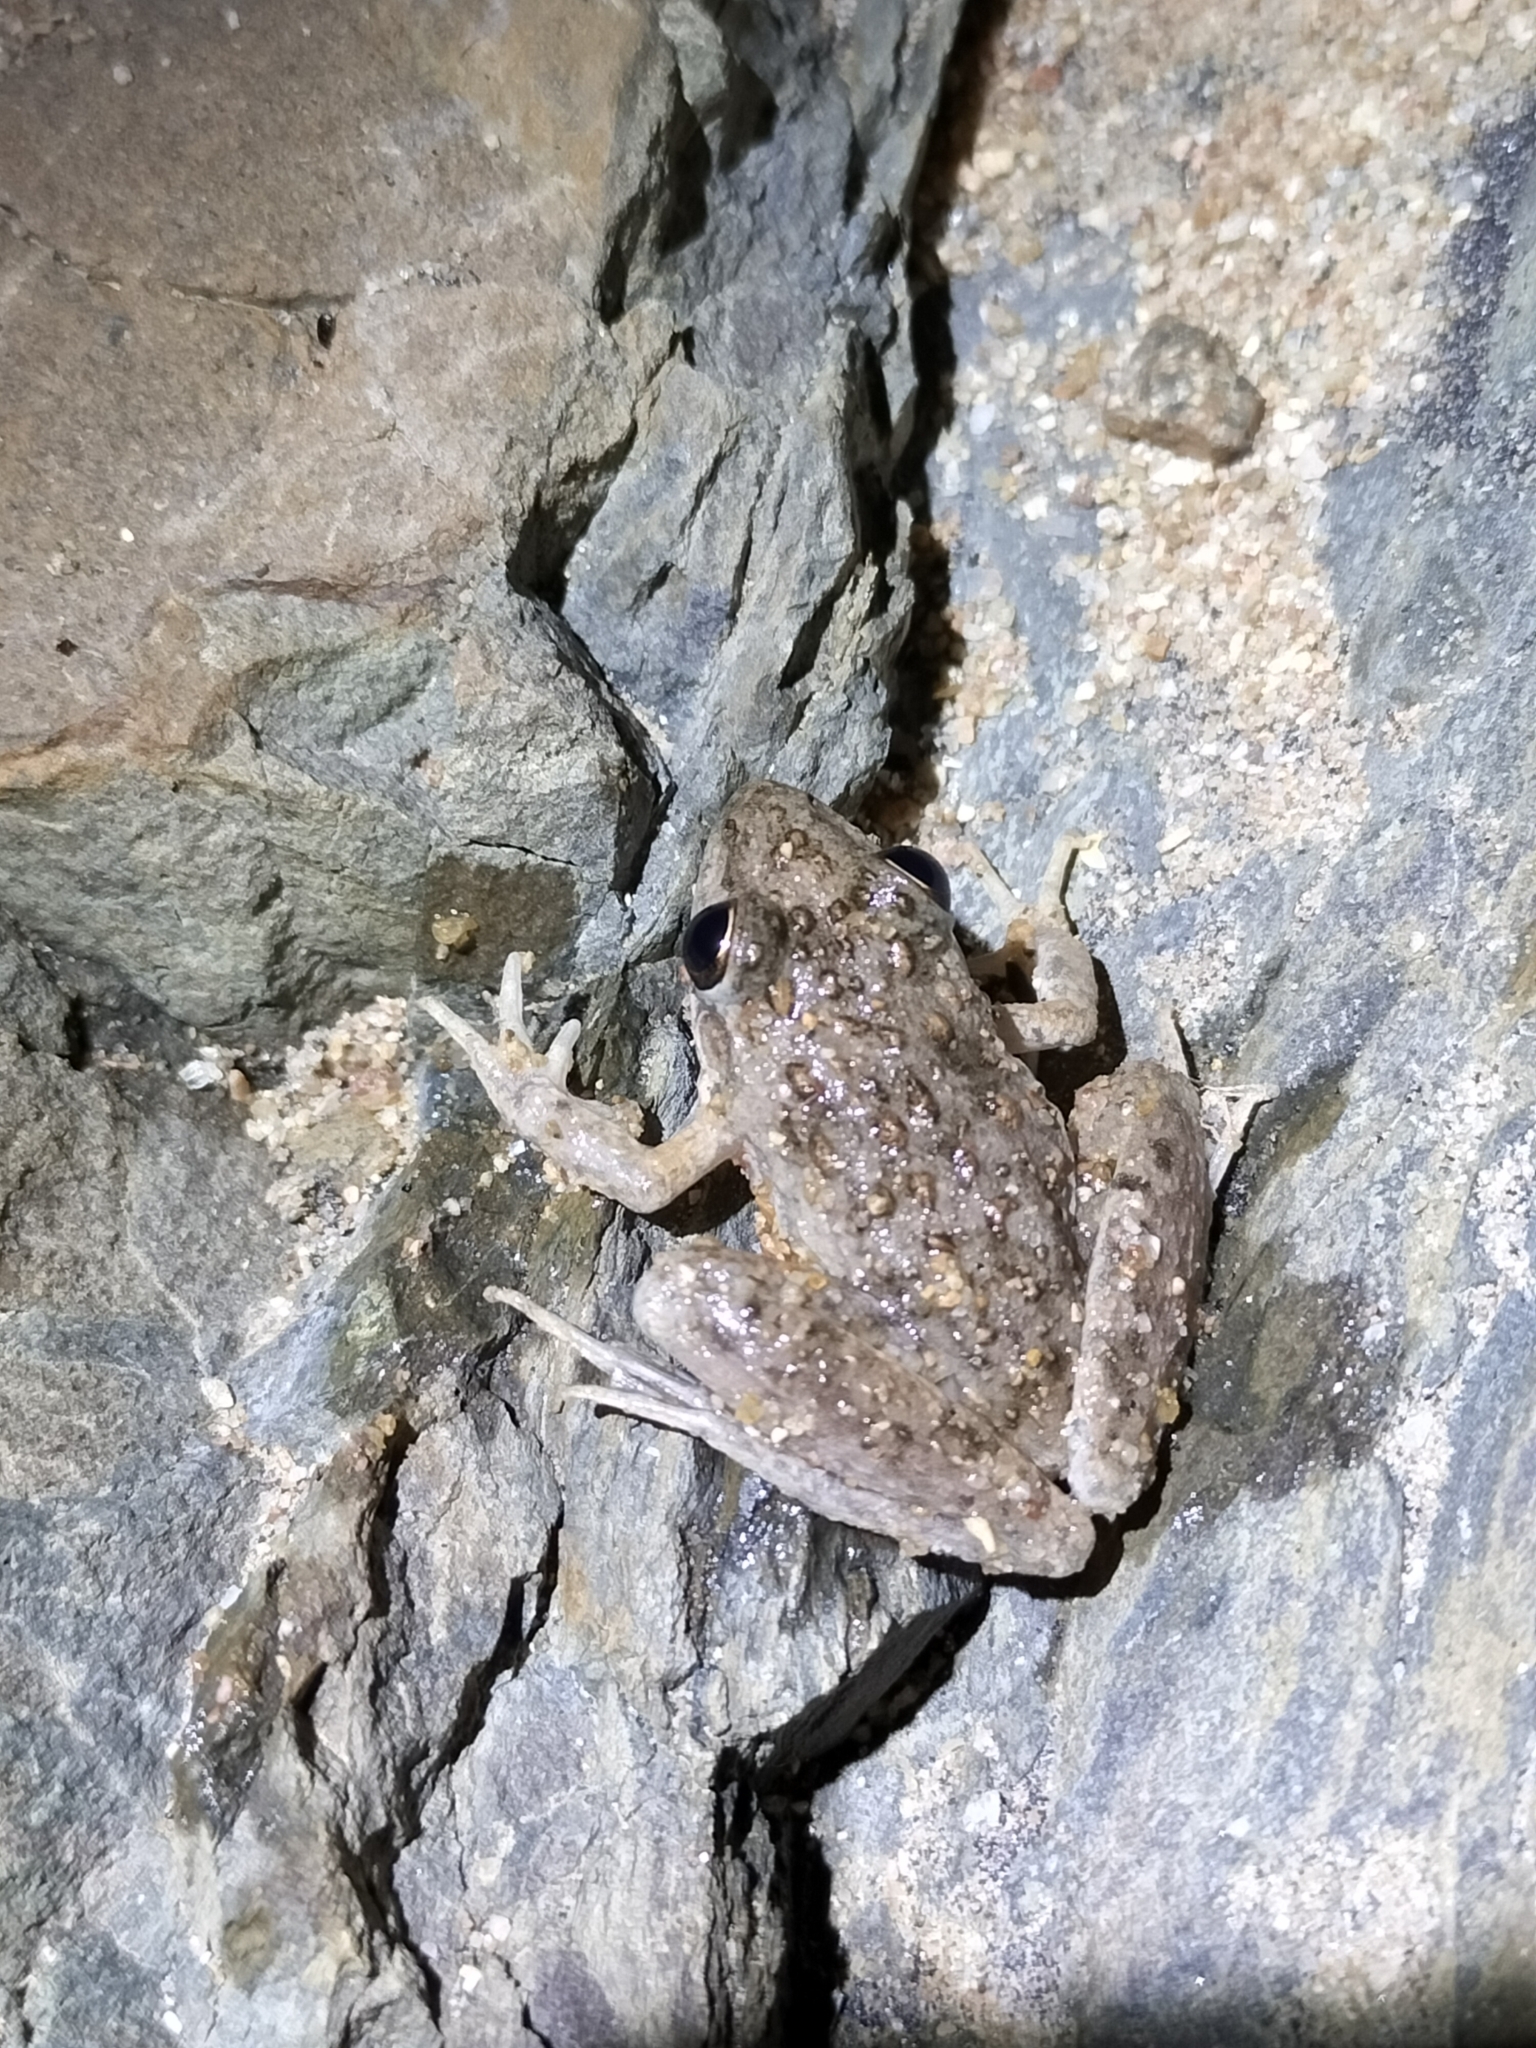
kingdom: Animalia
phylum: Chordata
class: Amphibia
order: Anura
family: Pelodryadidae
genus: Litoria
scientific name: Litoria inermis
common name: Bumpy rocket frog
